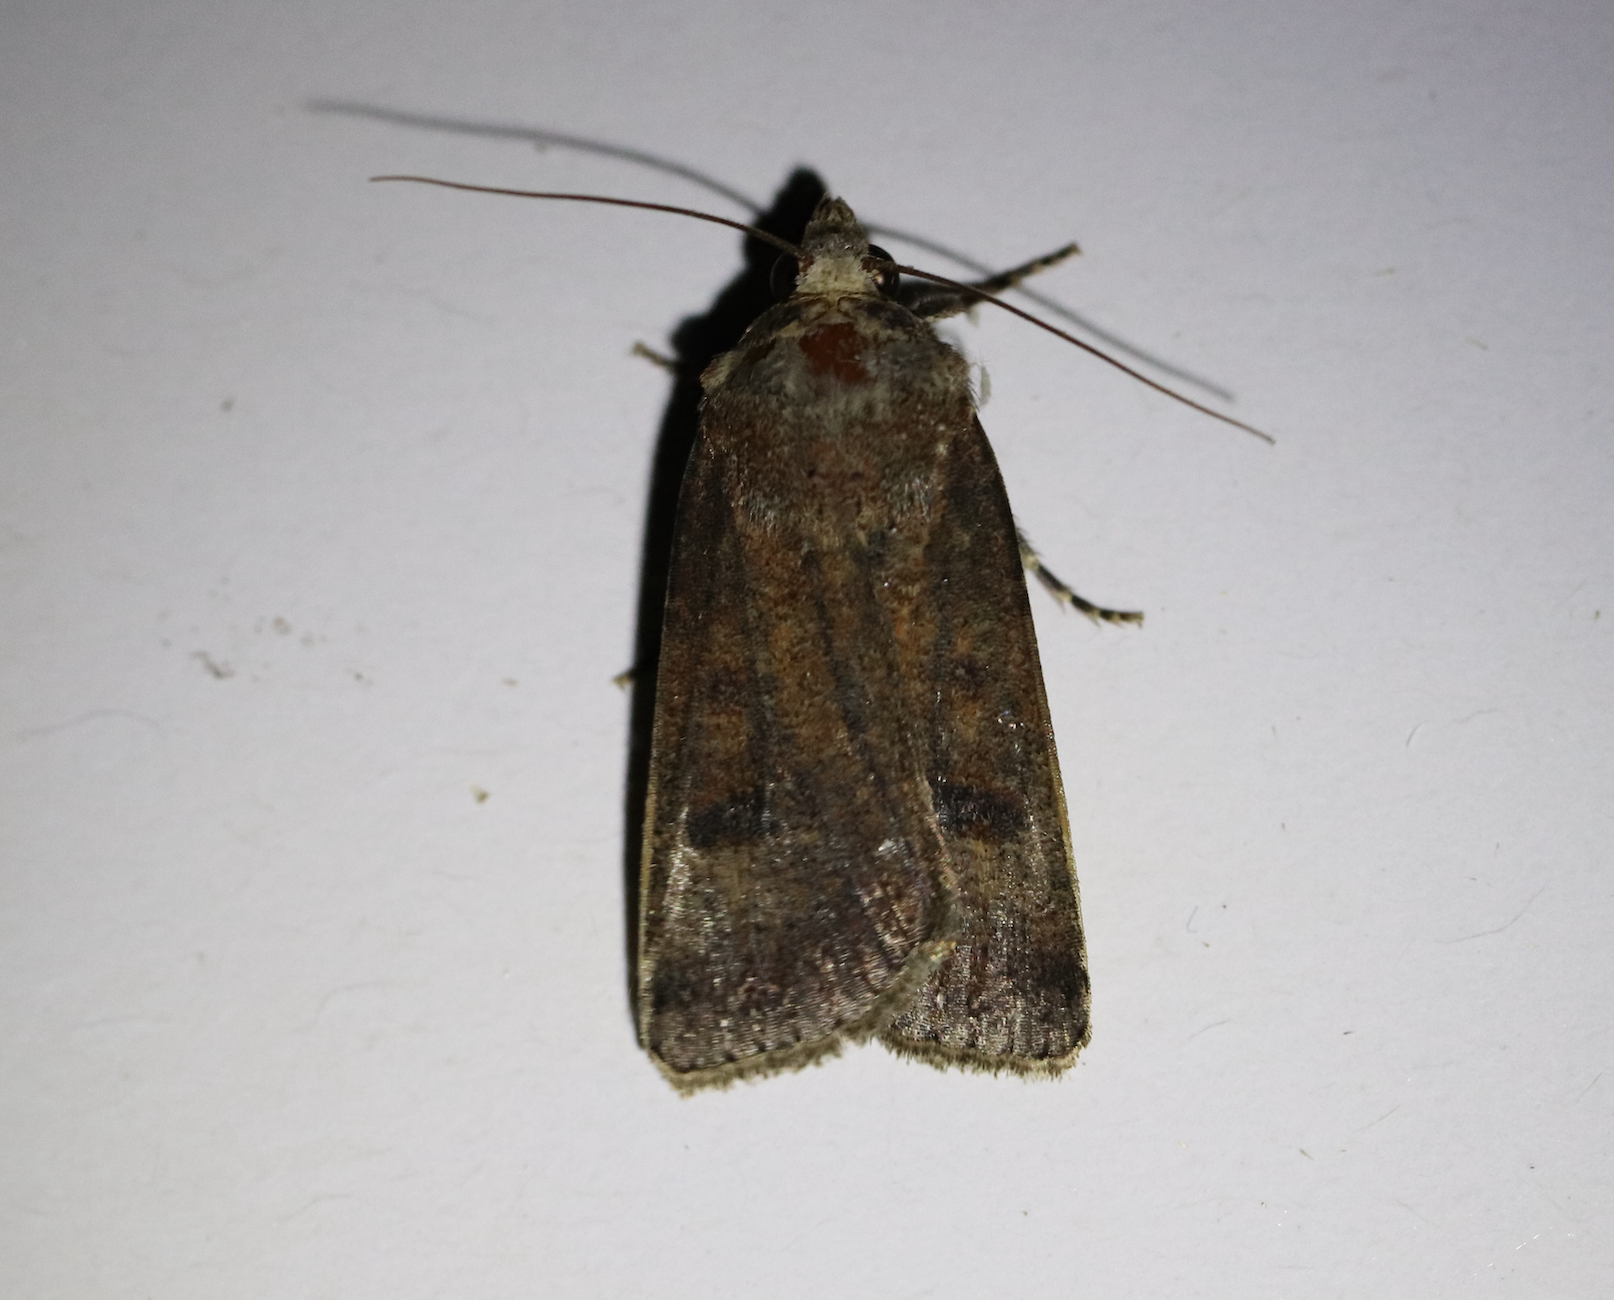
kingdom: Animalia
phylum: Arthropoda
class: Insecta
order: Lepidoptera
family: Noctuidae
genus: Agrotis
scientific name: Agrotis trux
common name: Crescent dart
